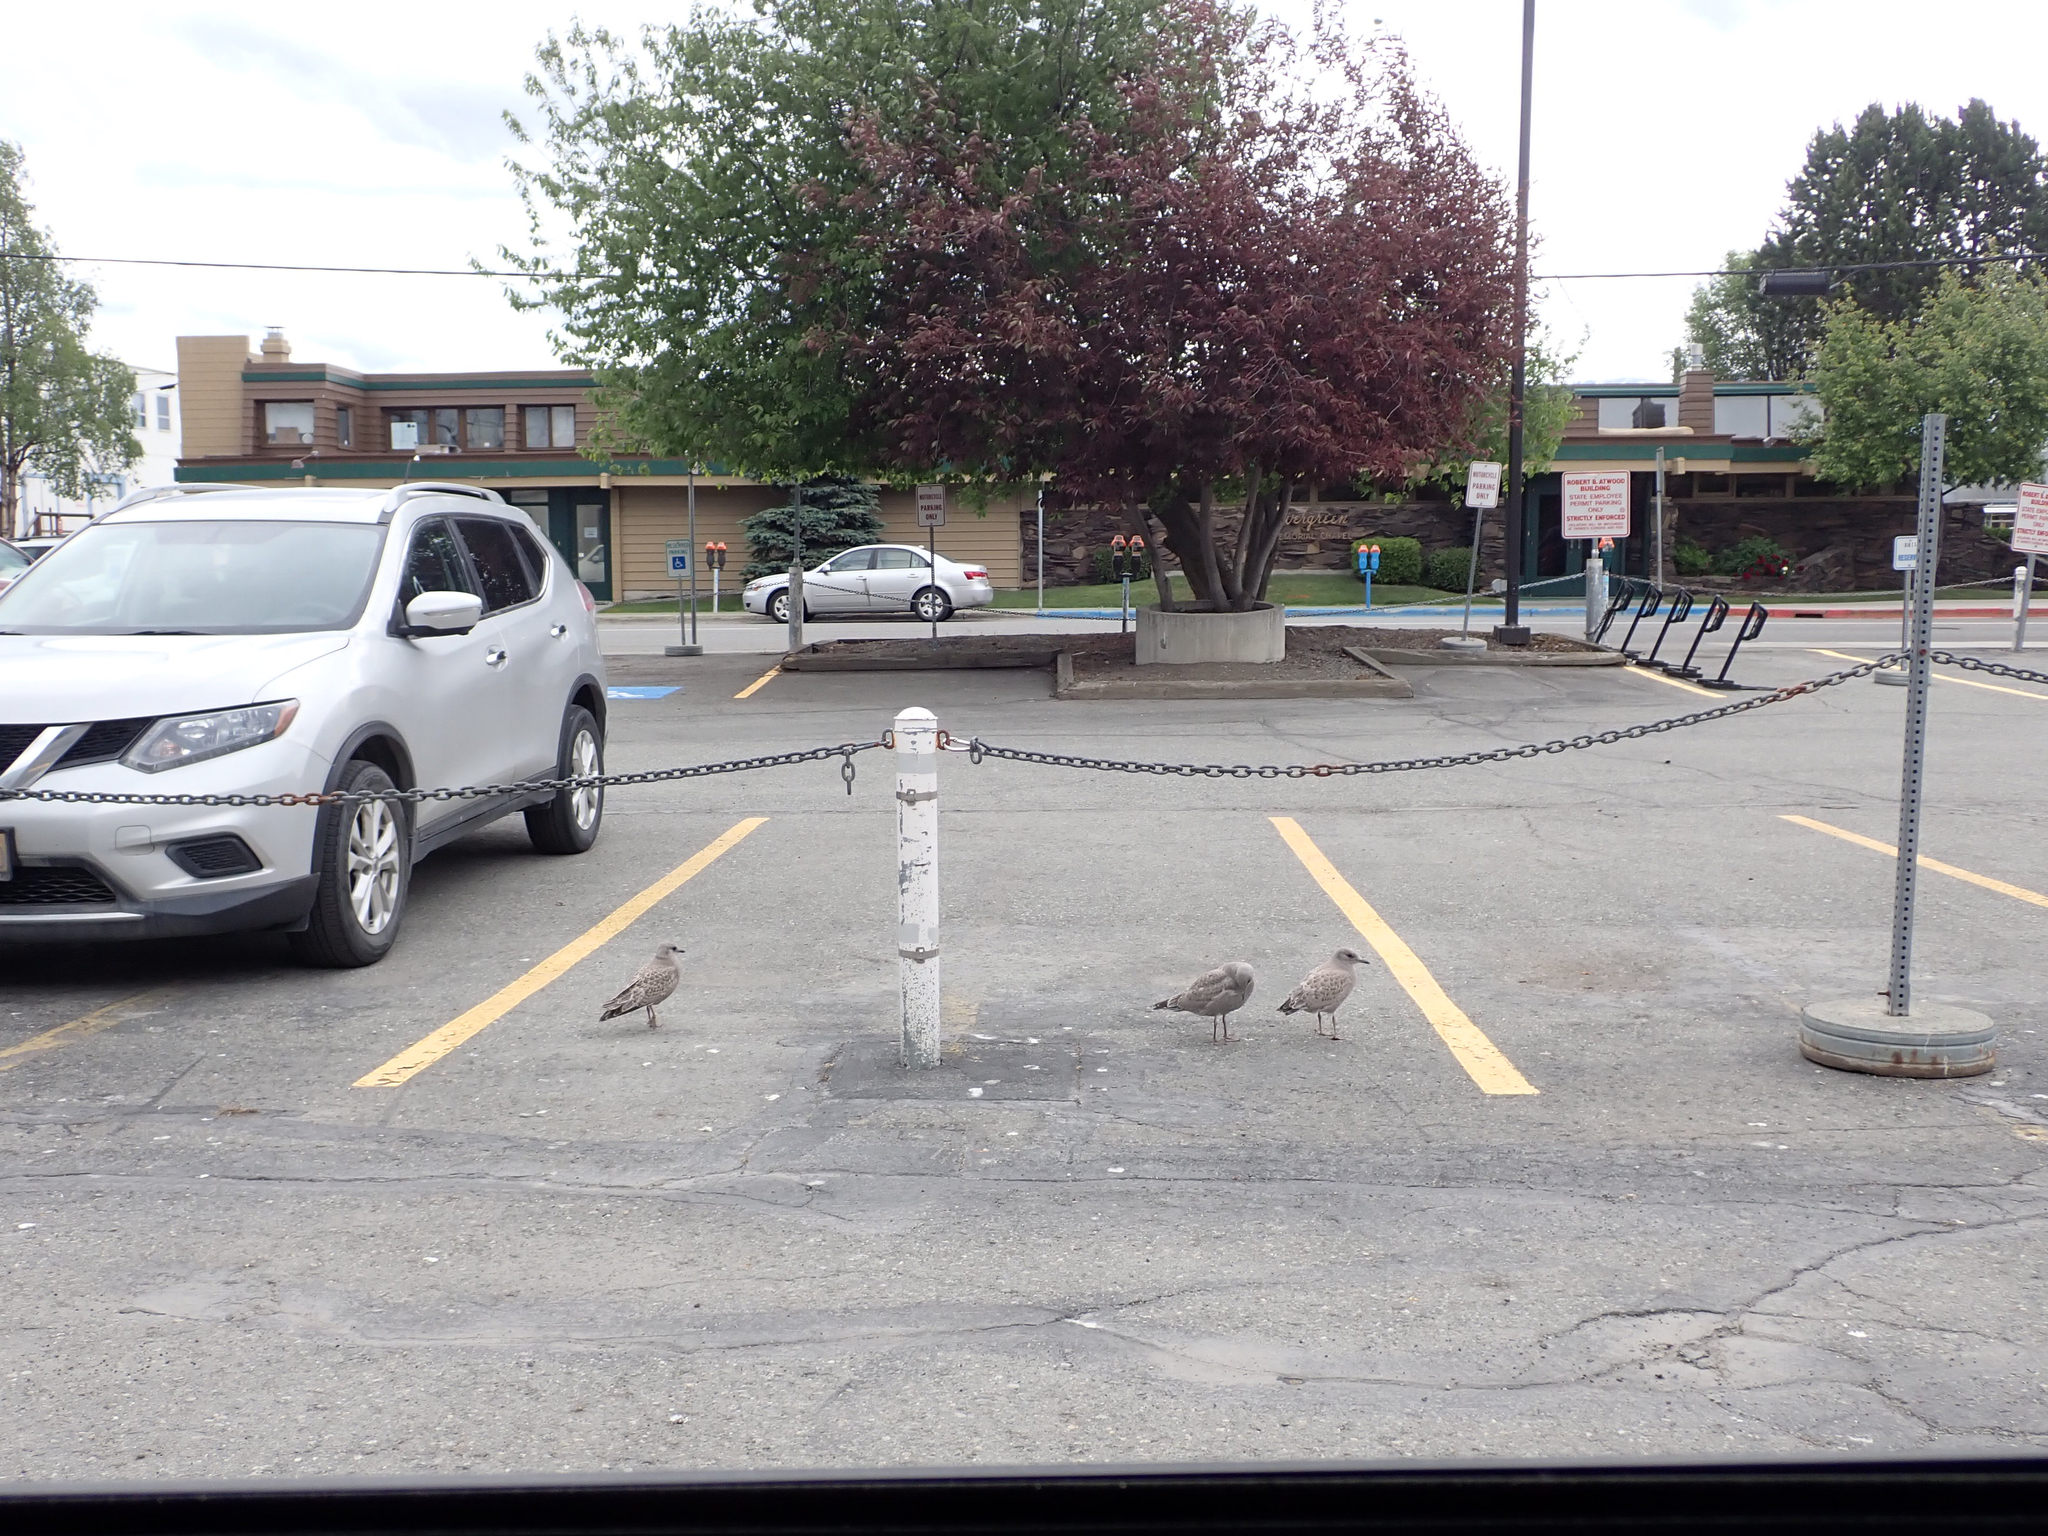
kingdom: Animalia
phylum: Chordata
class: Aves
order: Charadriiformes
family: Laridae
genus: Larus
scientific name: Larus brachyrhynchus
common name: Short-billed gull
